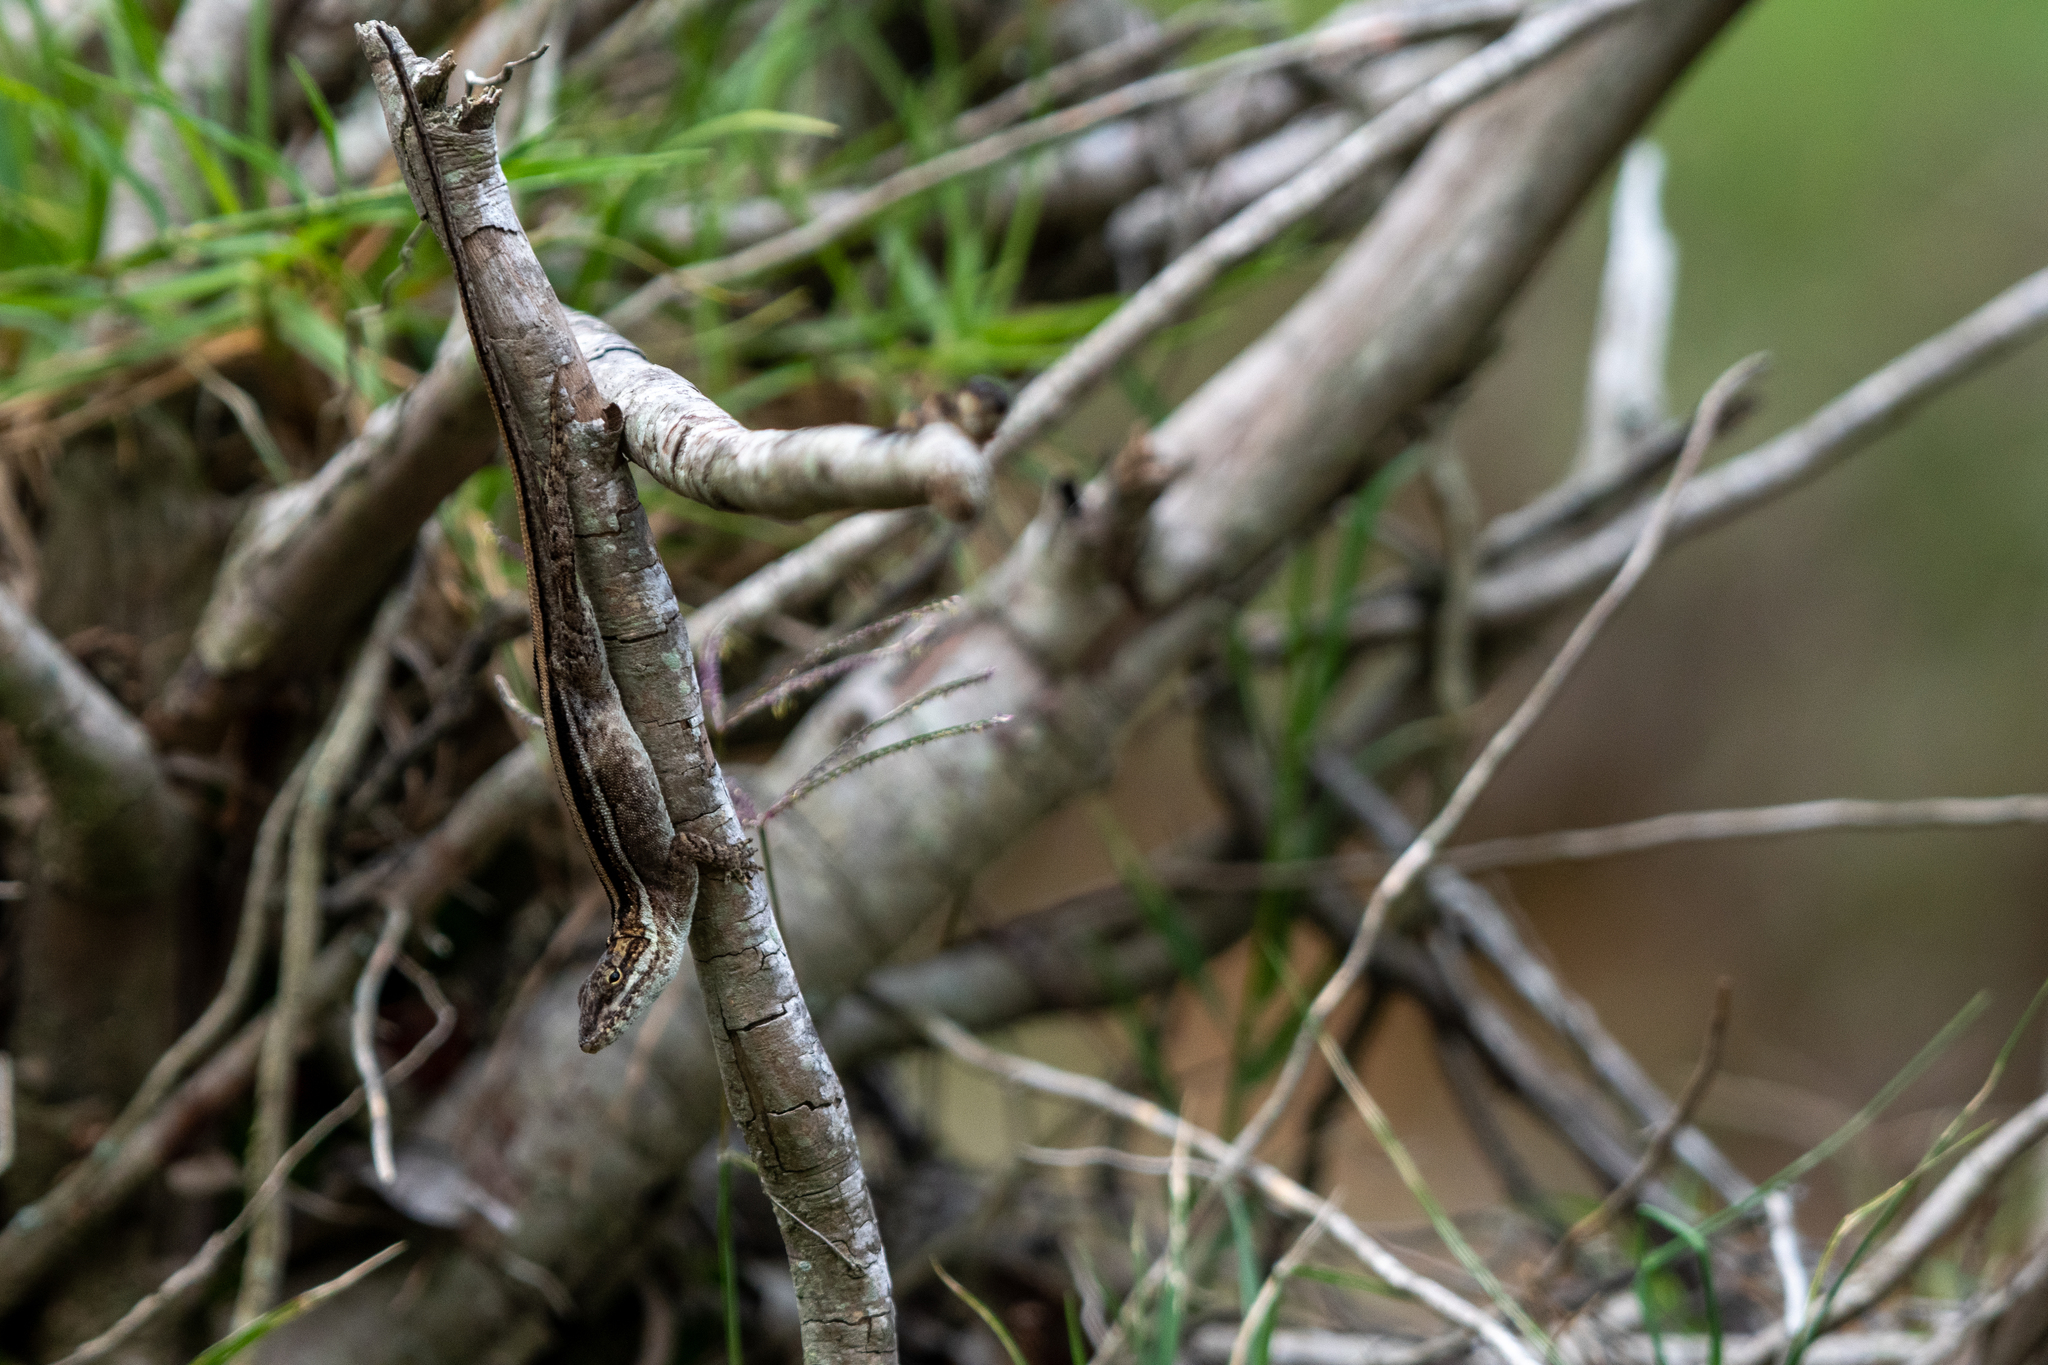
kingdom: Animalia
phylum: Chordata
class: Squamata
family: Dactyloidae
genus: Anolis
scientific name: Anolis caceresae
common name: Berta’s anole
